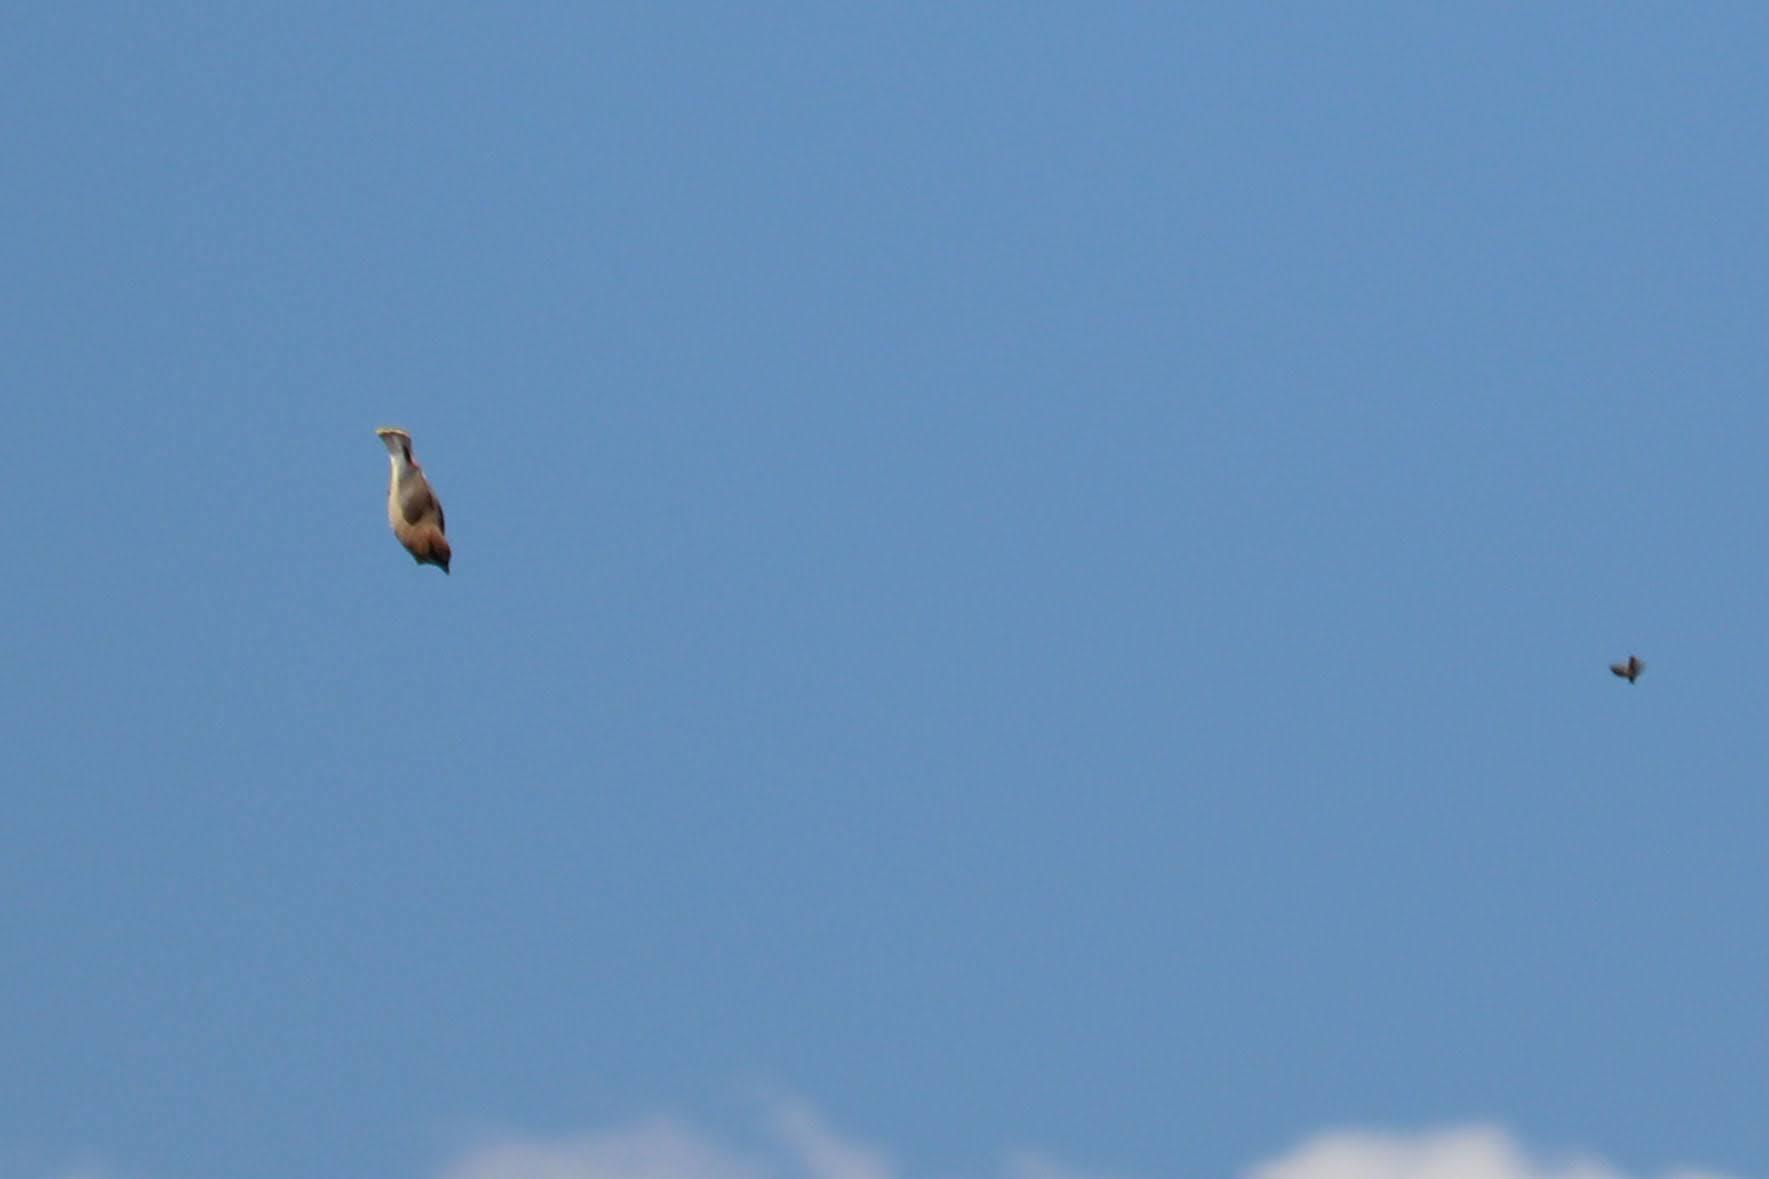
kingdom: Animalia
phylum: Chordata
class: Aves
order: Passeriformes
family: Bombycillidae
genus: Bombycilla
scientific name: Bombycilla cedrorum
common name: Cedar waxwing
